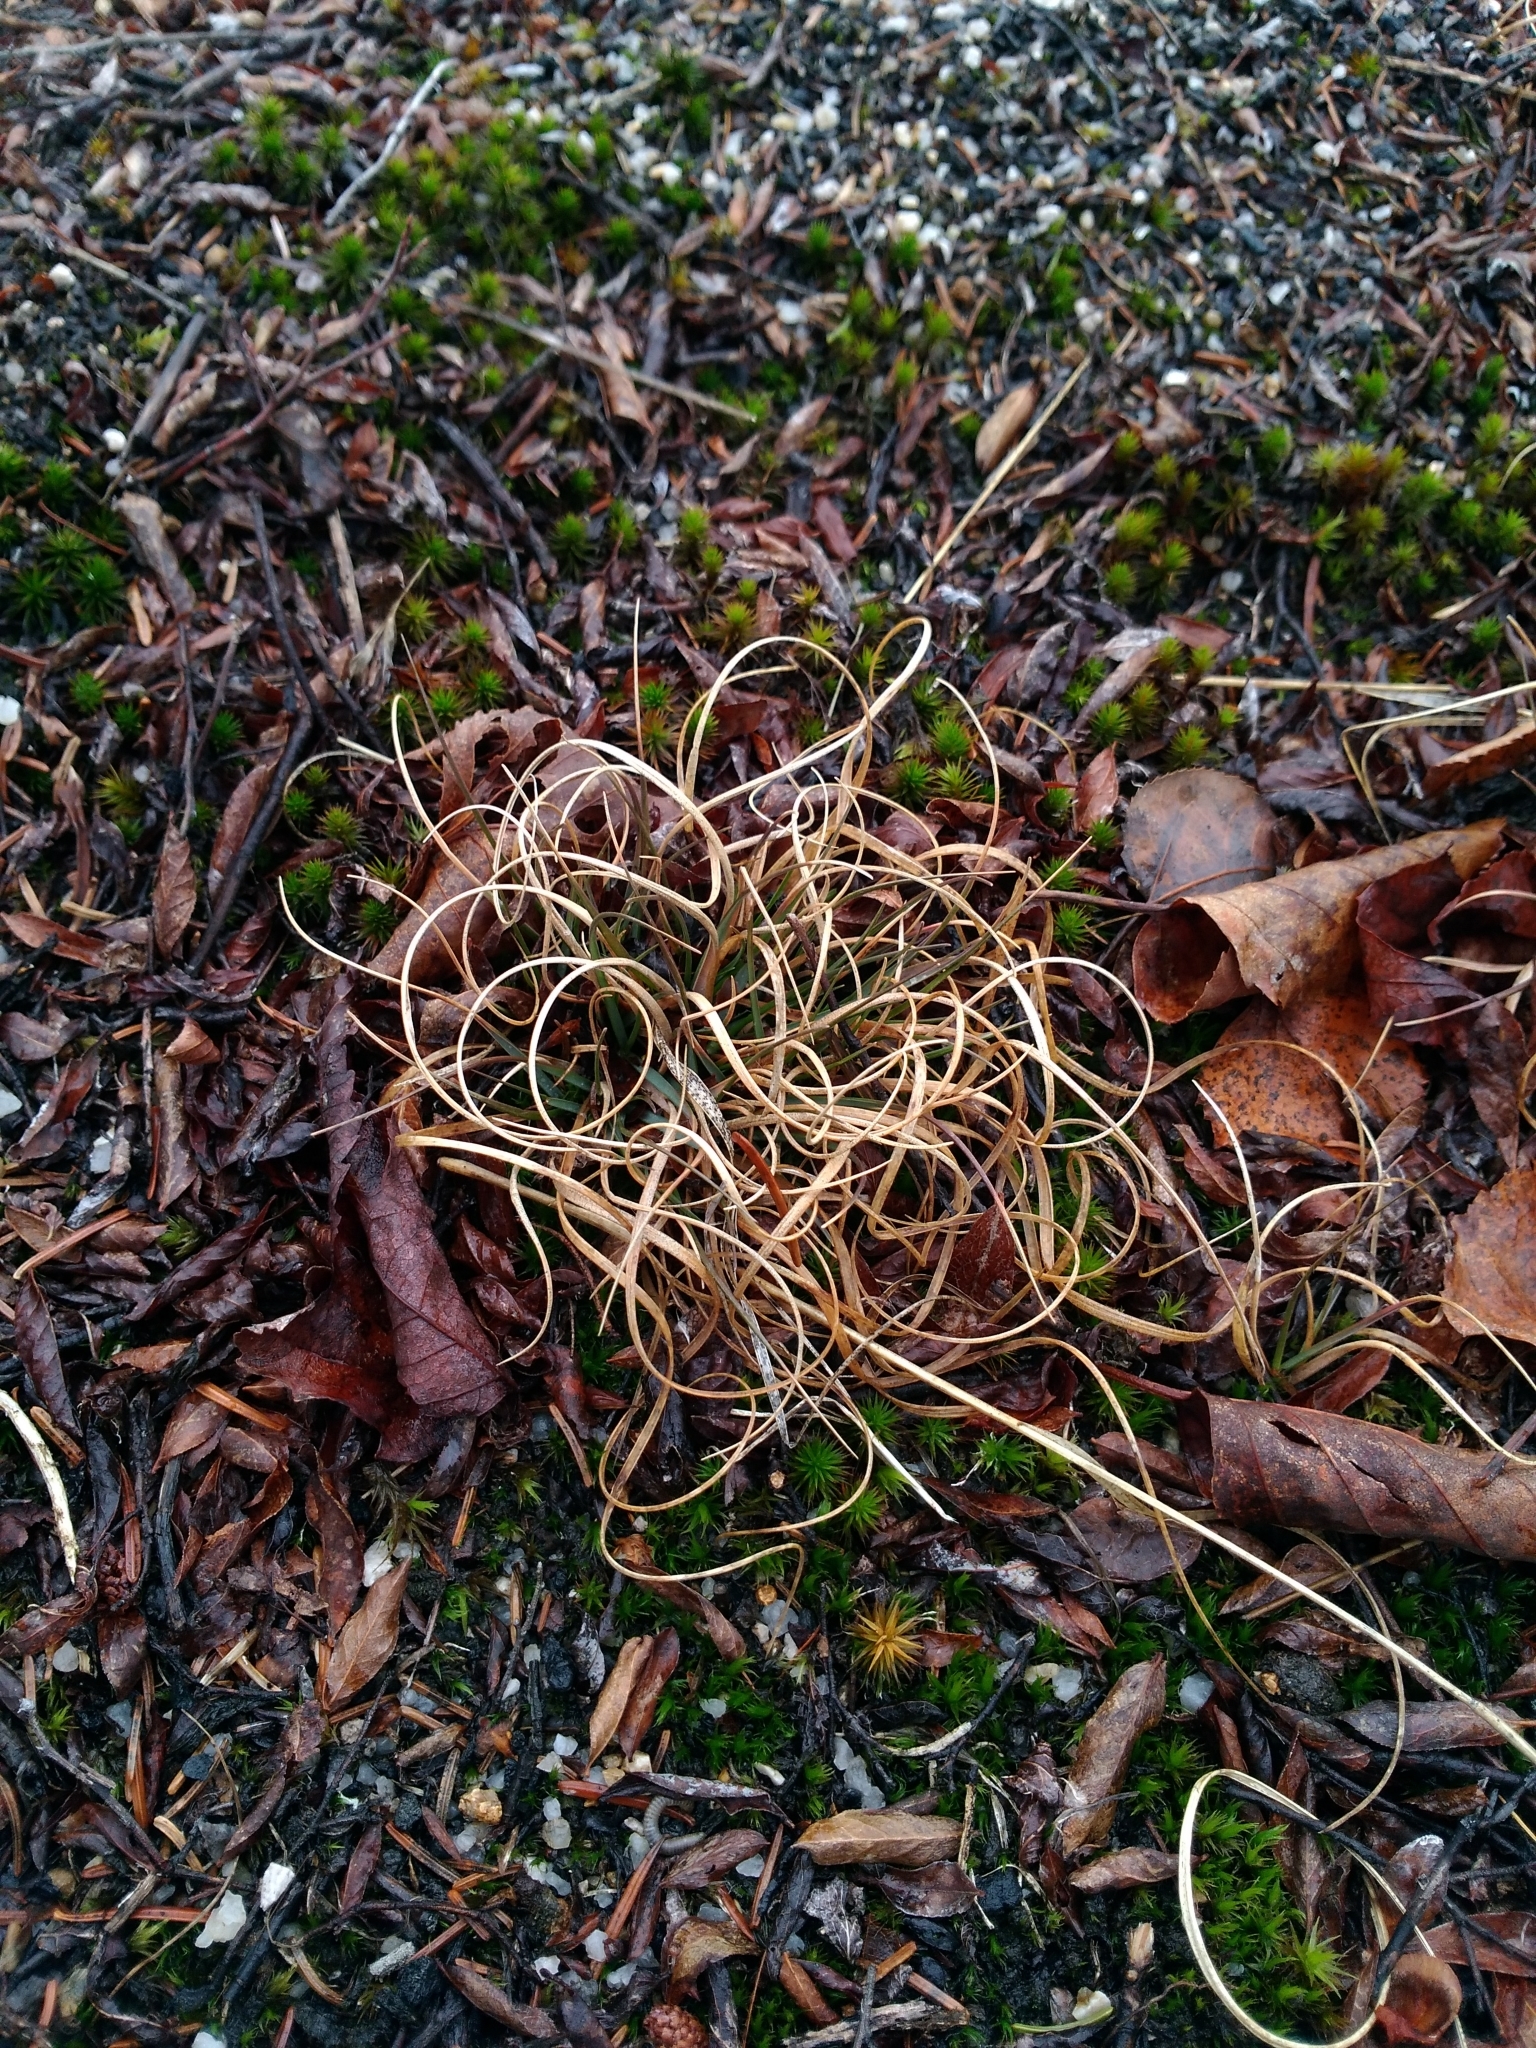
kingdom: Plantae
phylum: Tracheophyta
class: Liliopsida
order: Poales
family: Poaceae
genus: Danthonia
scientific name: Danthonia spicata
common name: Common wild oatgrass
